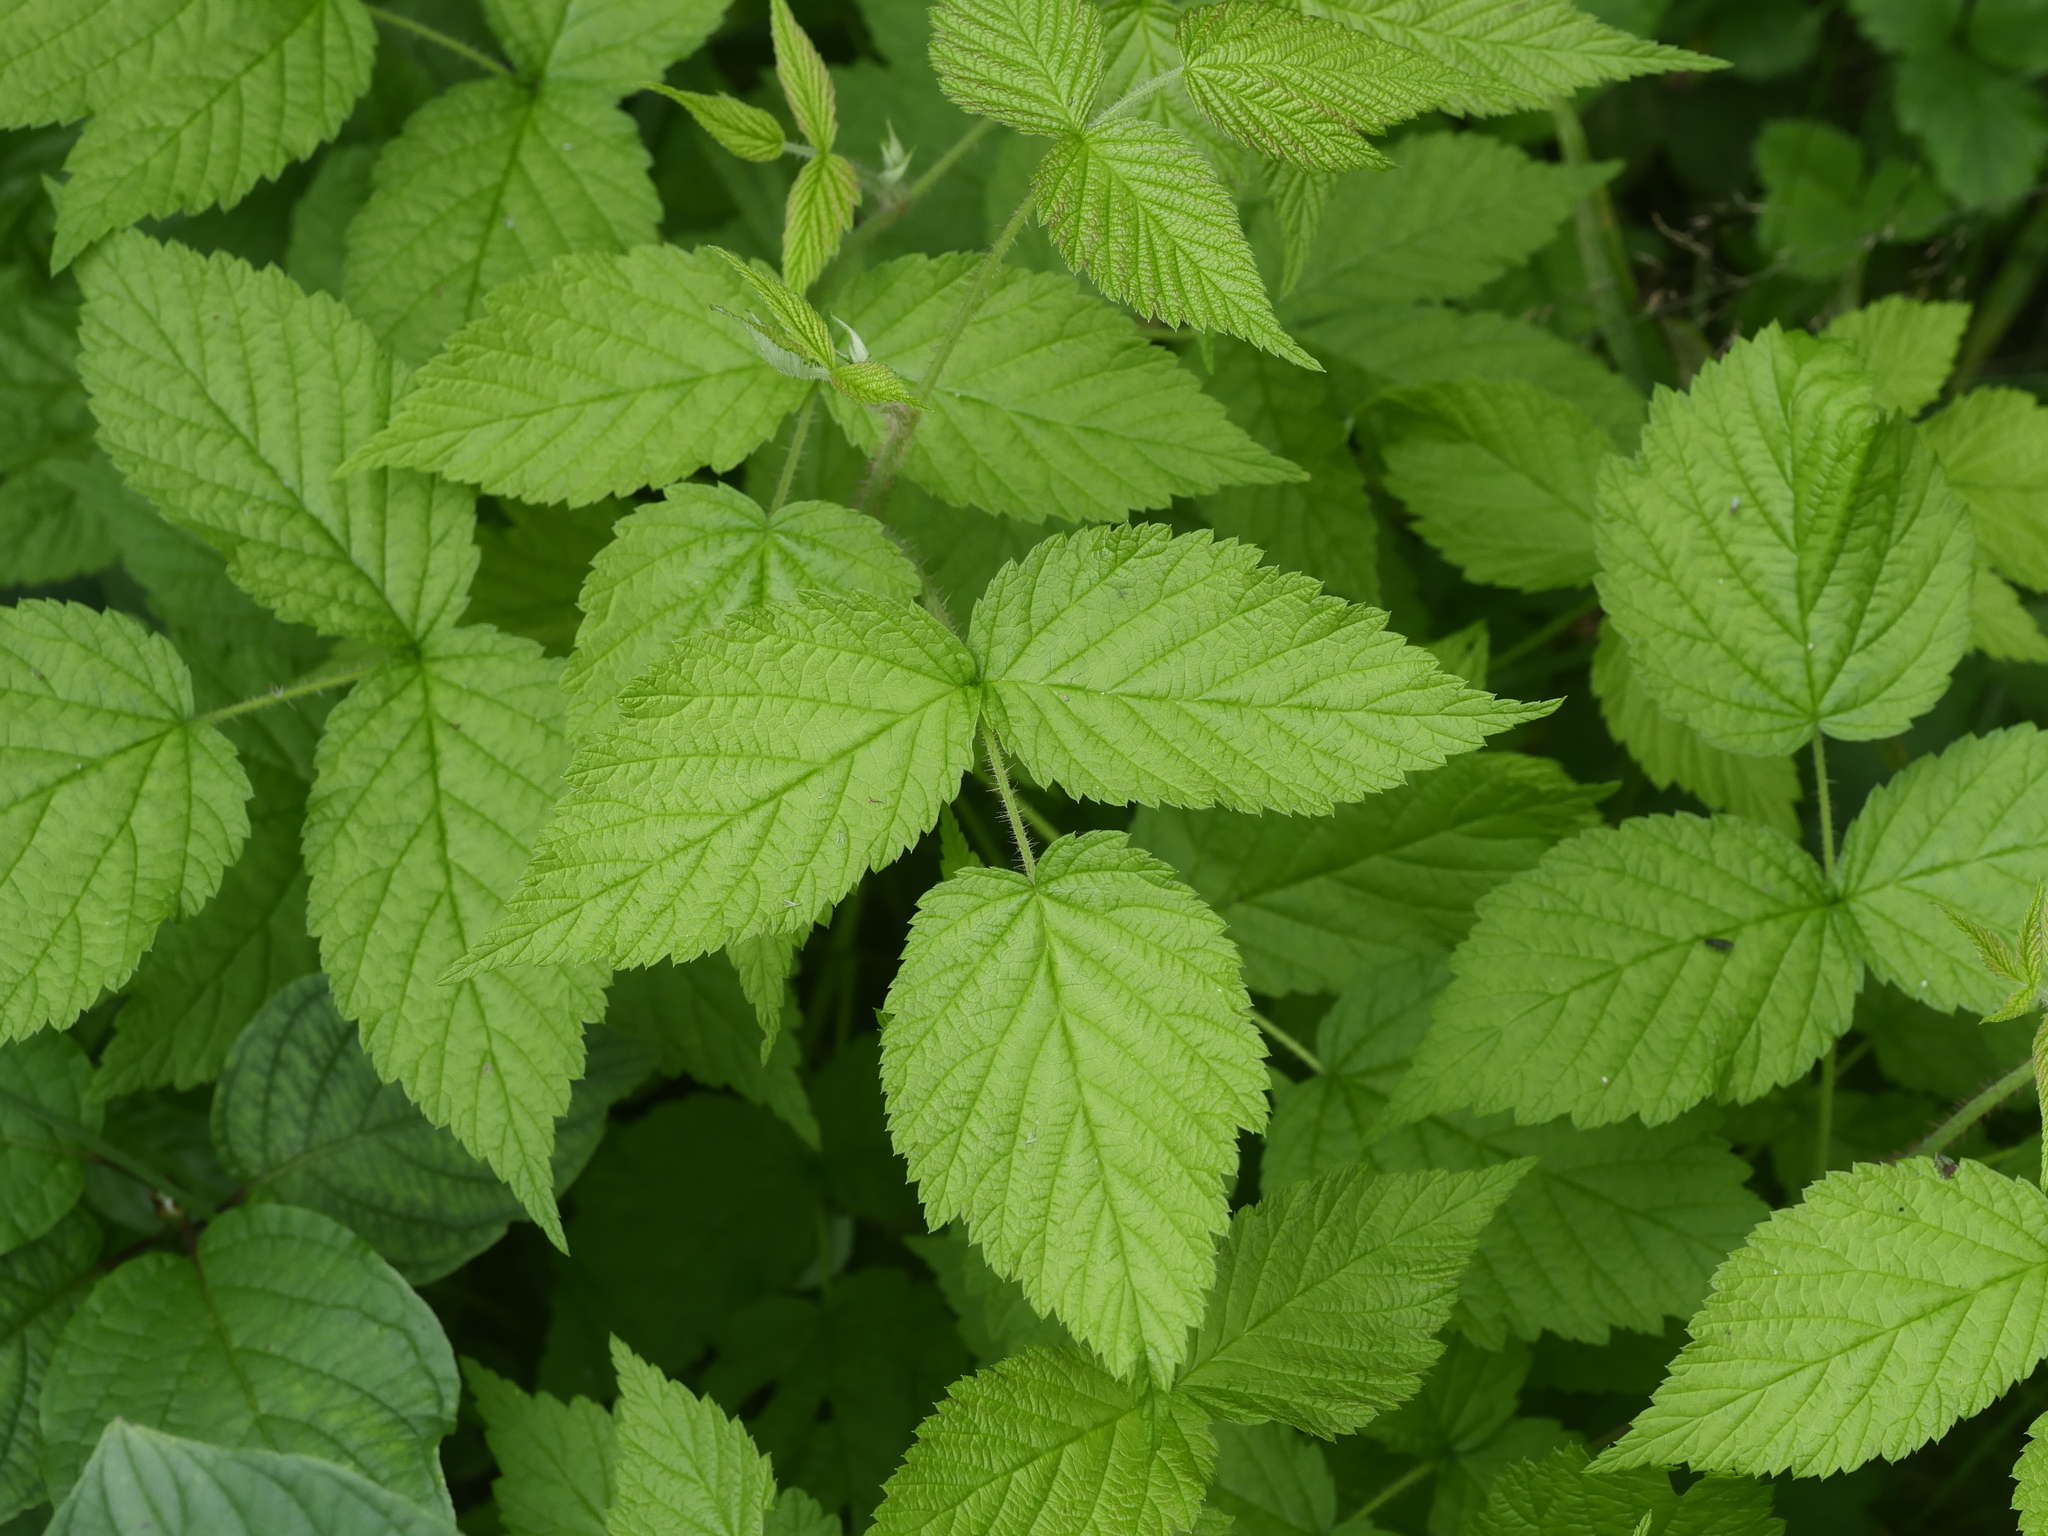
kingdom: Plantae
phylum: Tracheophyta
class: Magnoliopsida
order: Rosales
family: Rosaceae
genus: Rubus
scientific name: Rubus idaeus
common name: Raspberry
